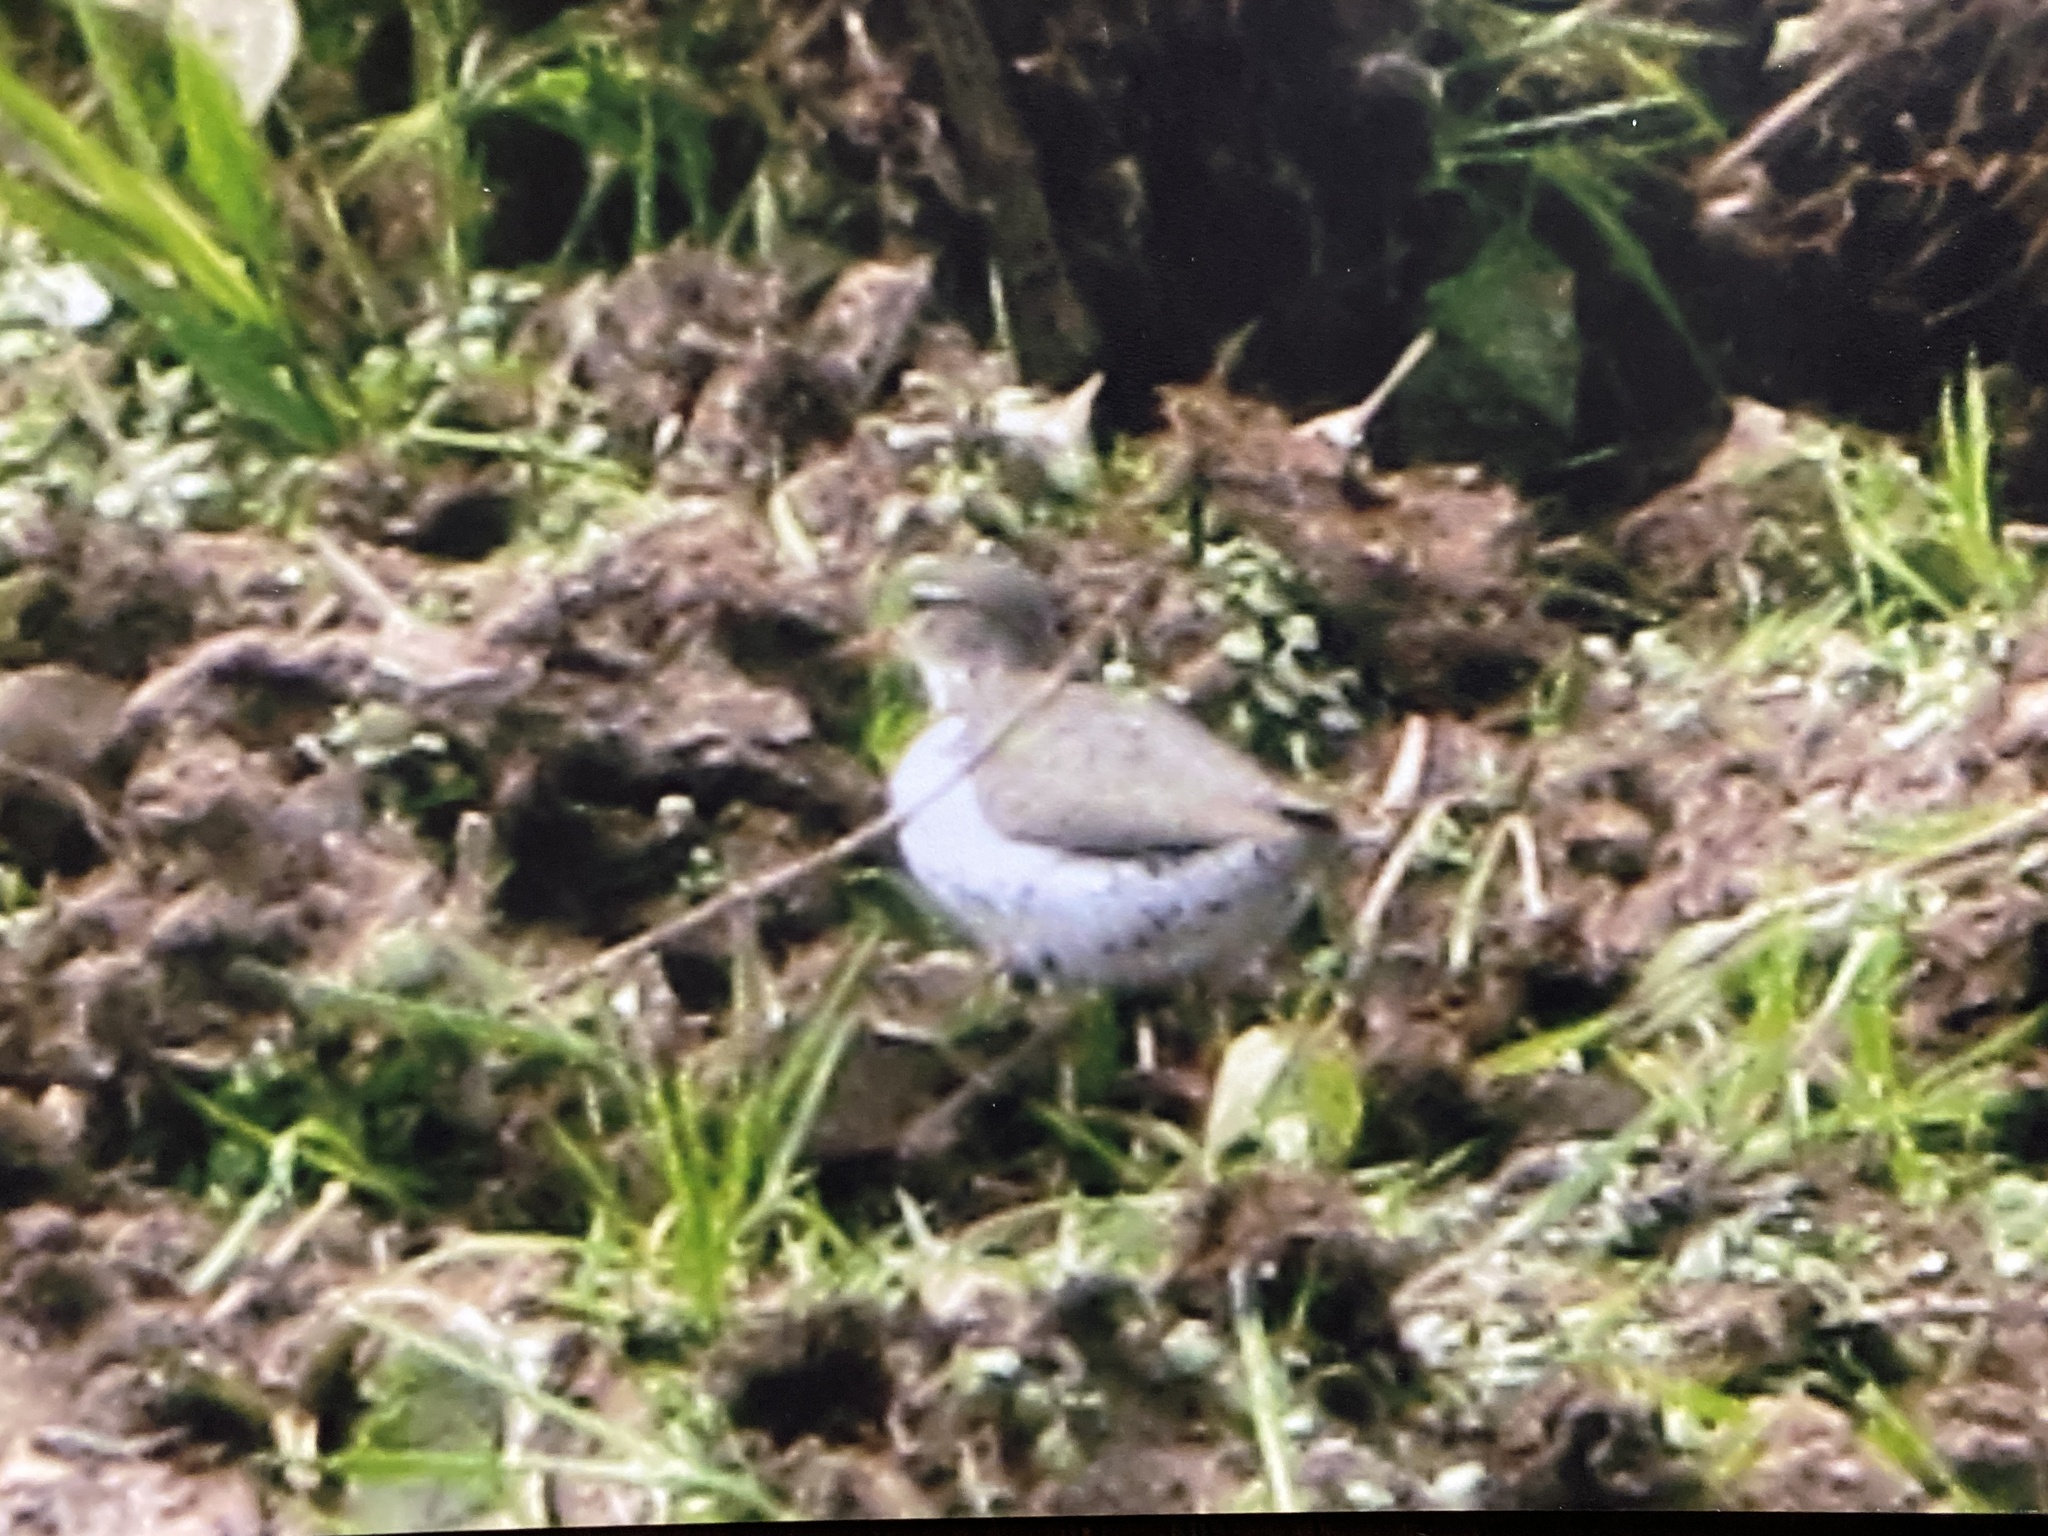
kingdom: Animalia
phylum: Chordata
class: Aves
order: Charadriiformes
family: Scolopacidae
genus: Actitis
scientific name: Actitis macularius
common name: Spotted sandpiper
